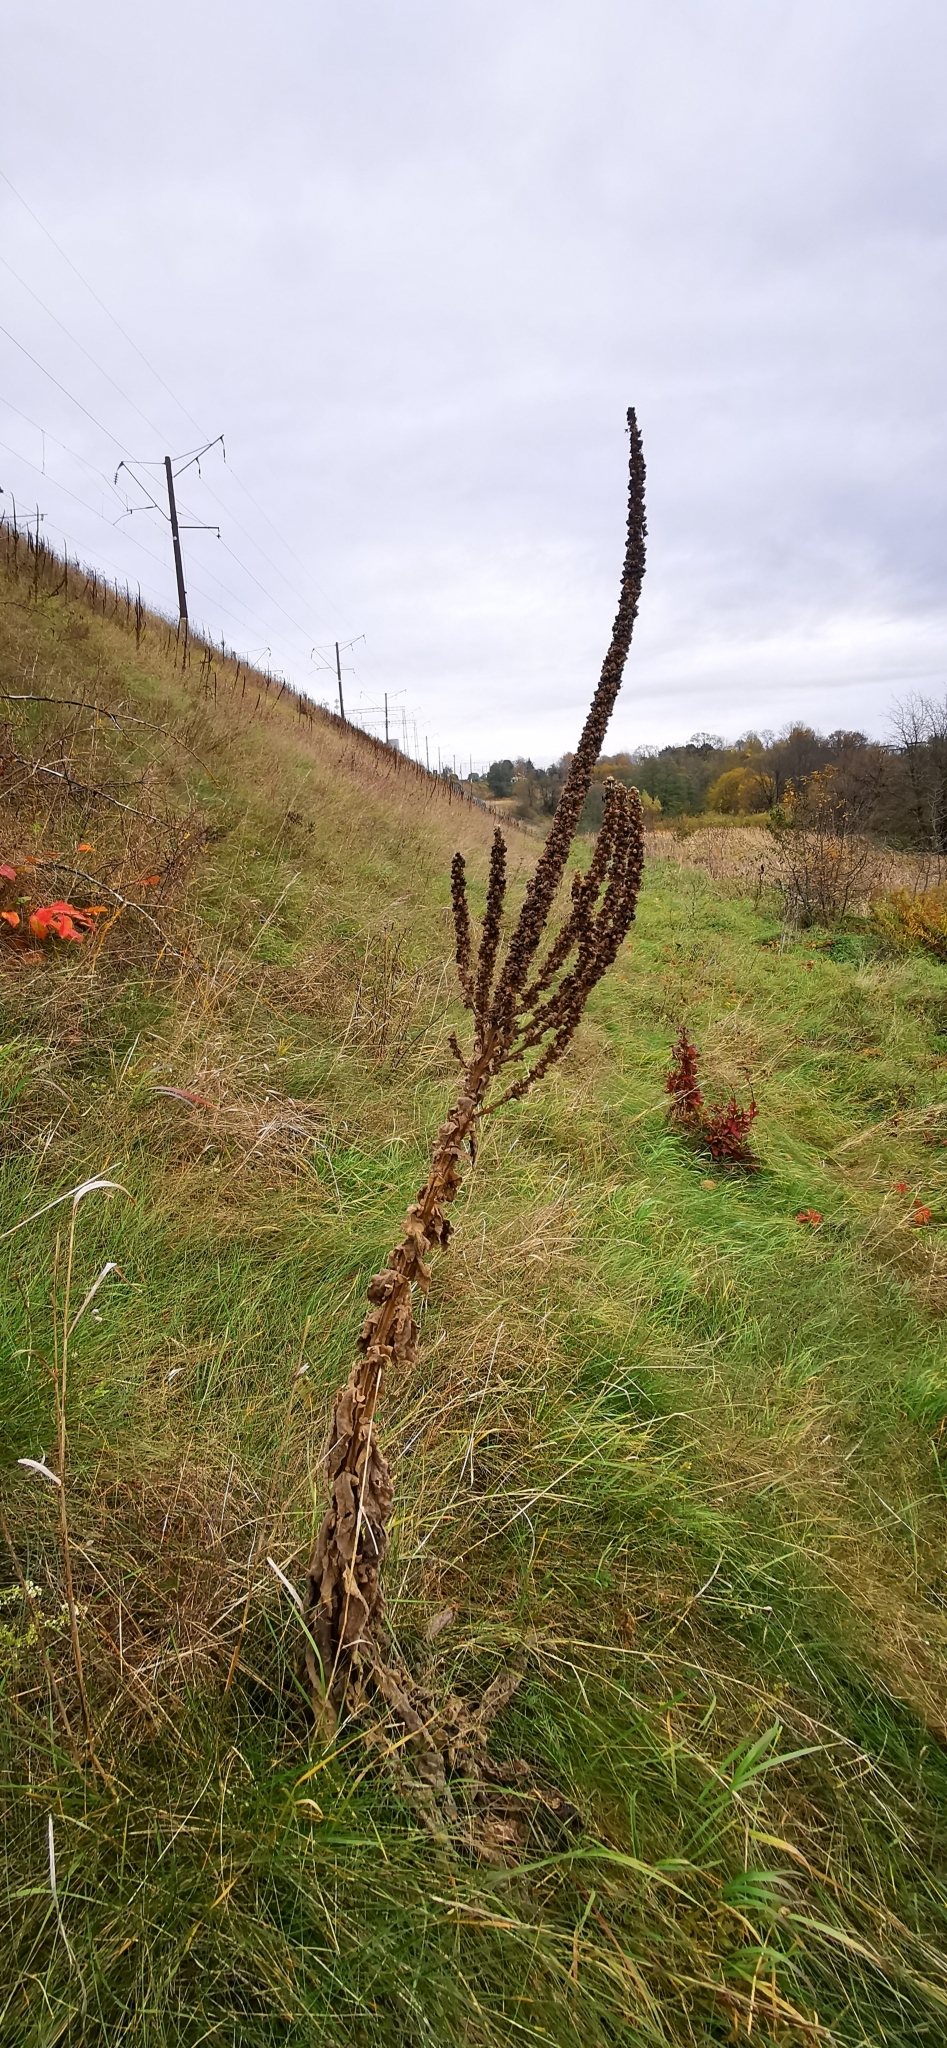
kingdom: Plantae
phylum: Tracheophyta
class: Magnoliopsida
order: Lamiales
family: Scrophulariaceae
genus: Verbascum
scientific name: Verbascum thapsus
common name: Common mullein
